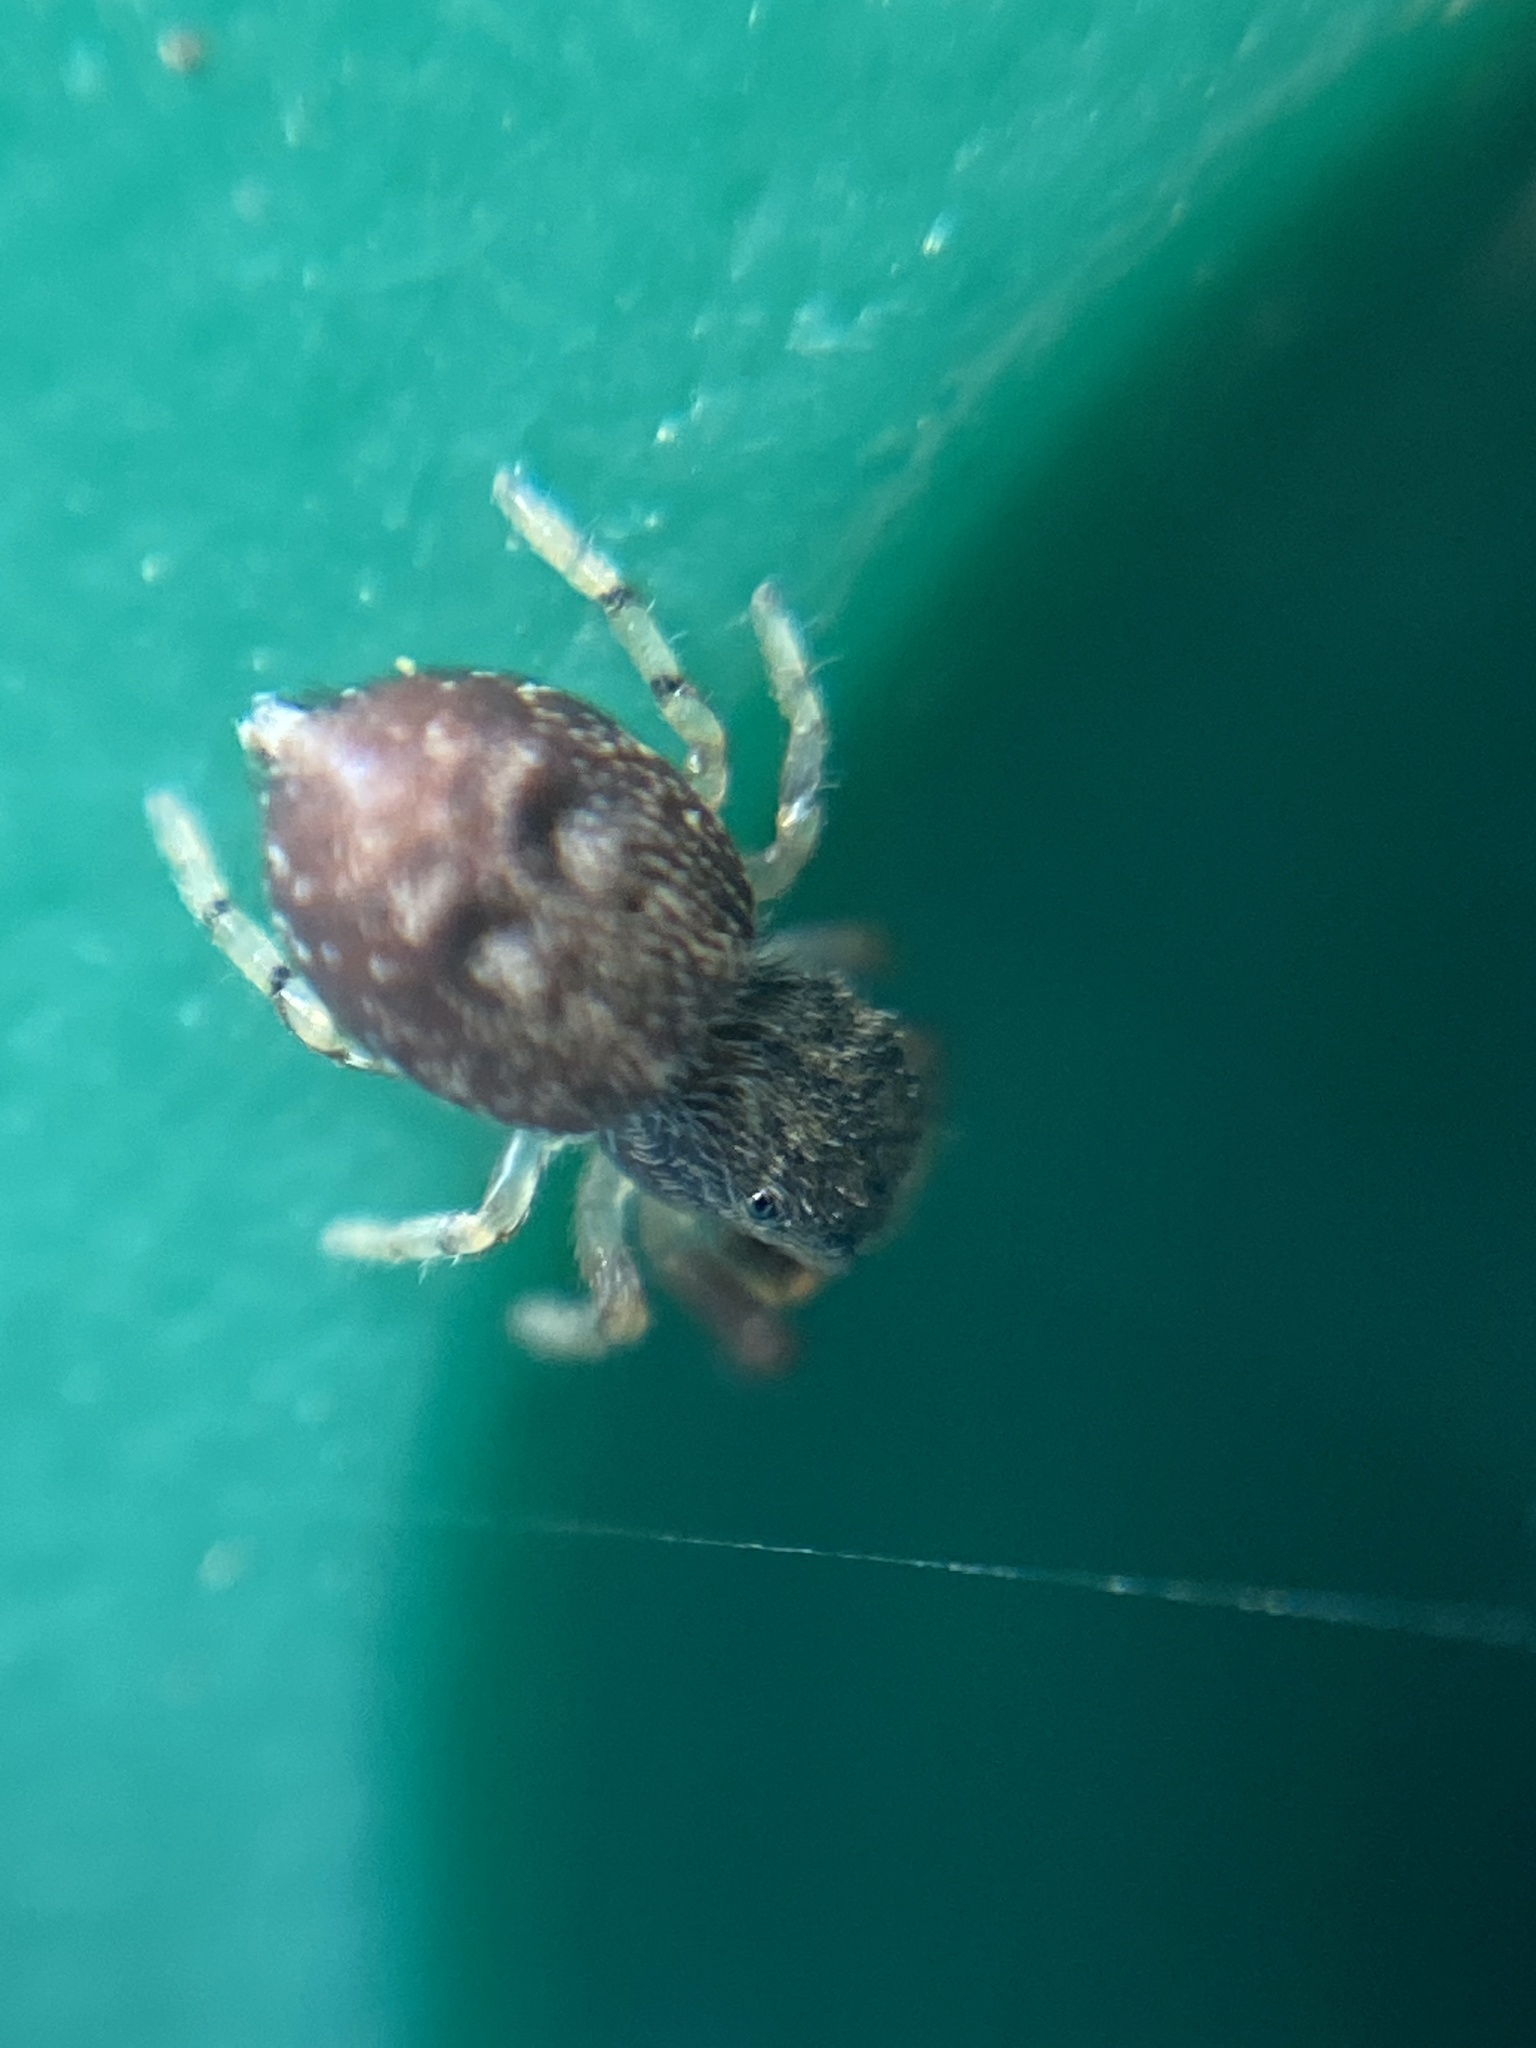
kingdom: Animalia
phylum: Arthropoda
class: Arachnida
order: Araneae
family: Salticidae
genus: Ballus
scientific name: Ballus chalybeius
